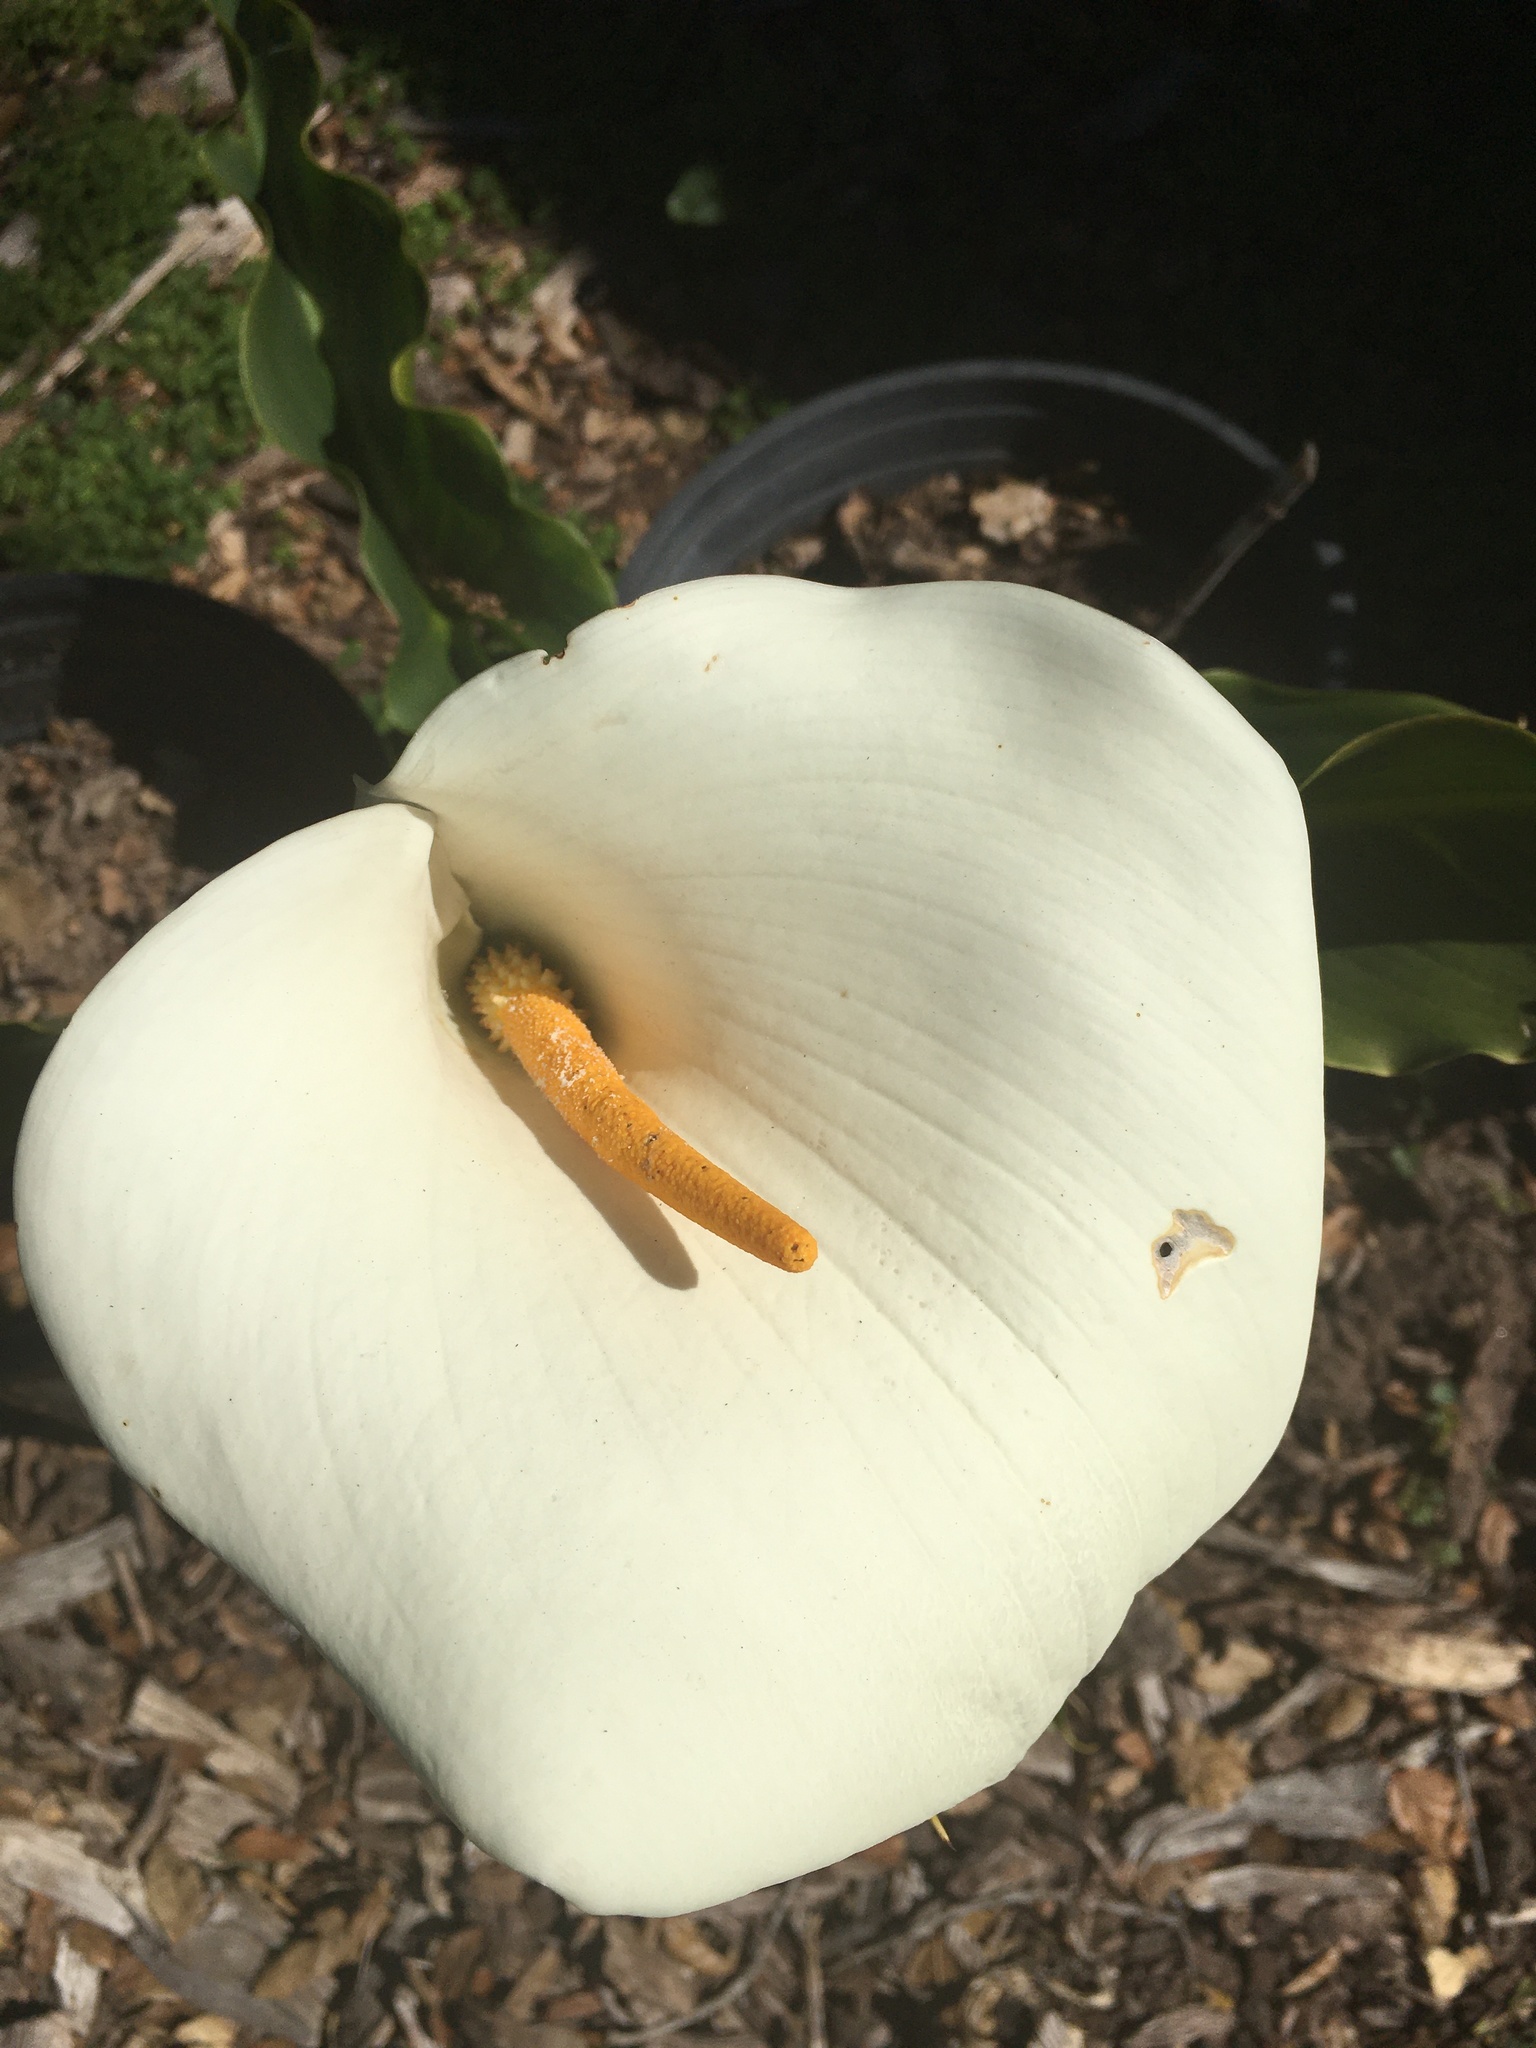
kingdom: Plantae
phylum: Tracheophyta
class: Liliopsida
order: Alismatales
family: Araceae
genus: Zantedeschia
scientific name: Zantedeschia aethiopica
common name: Altar-lily
